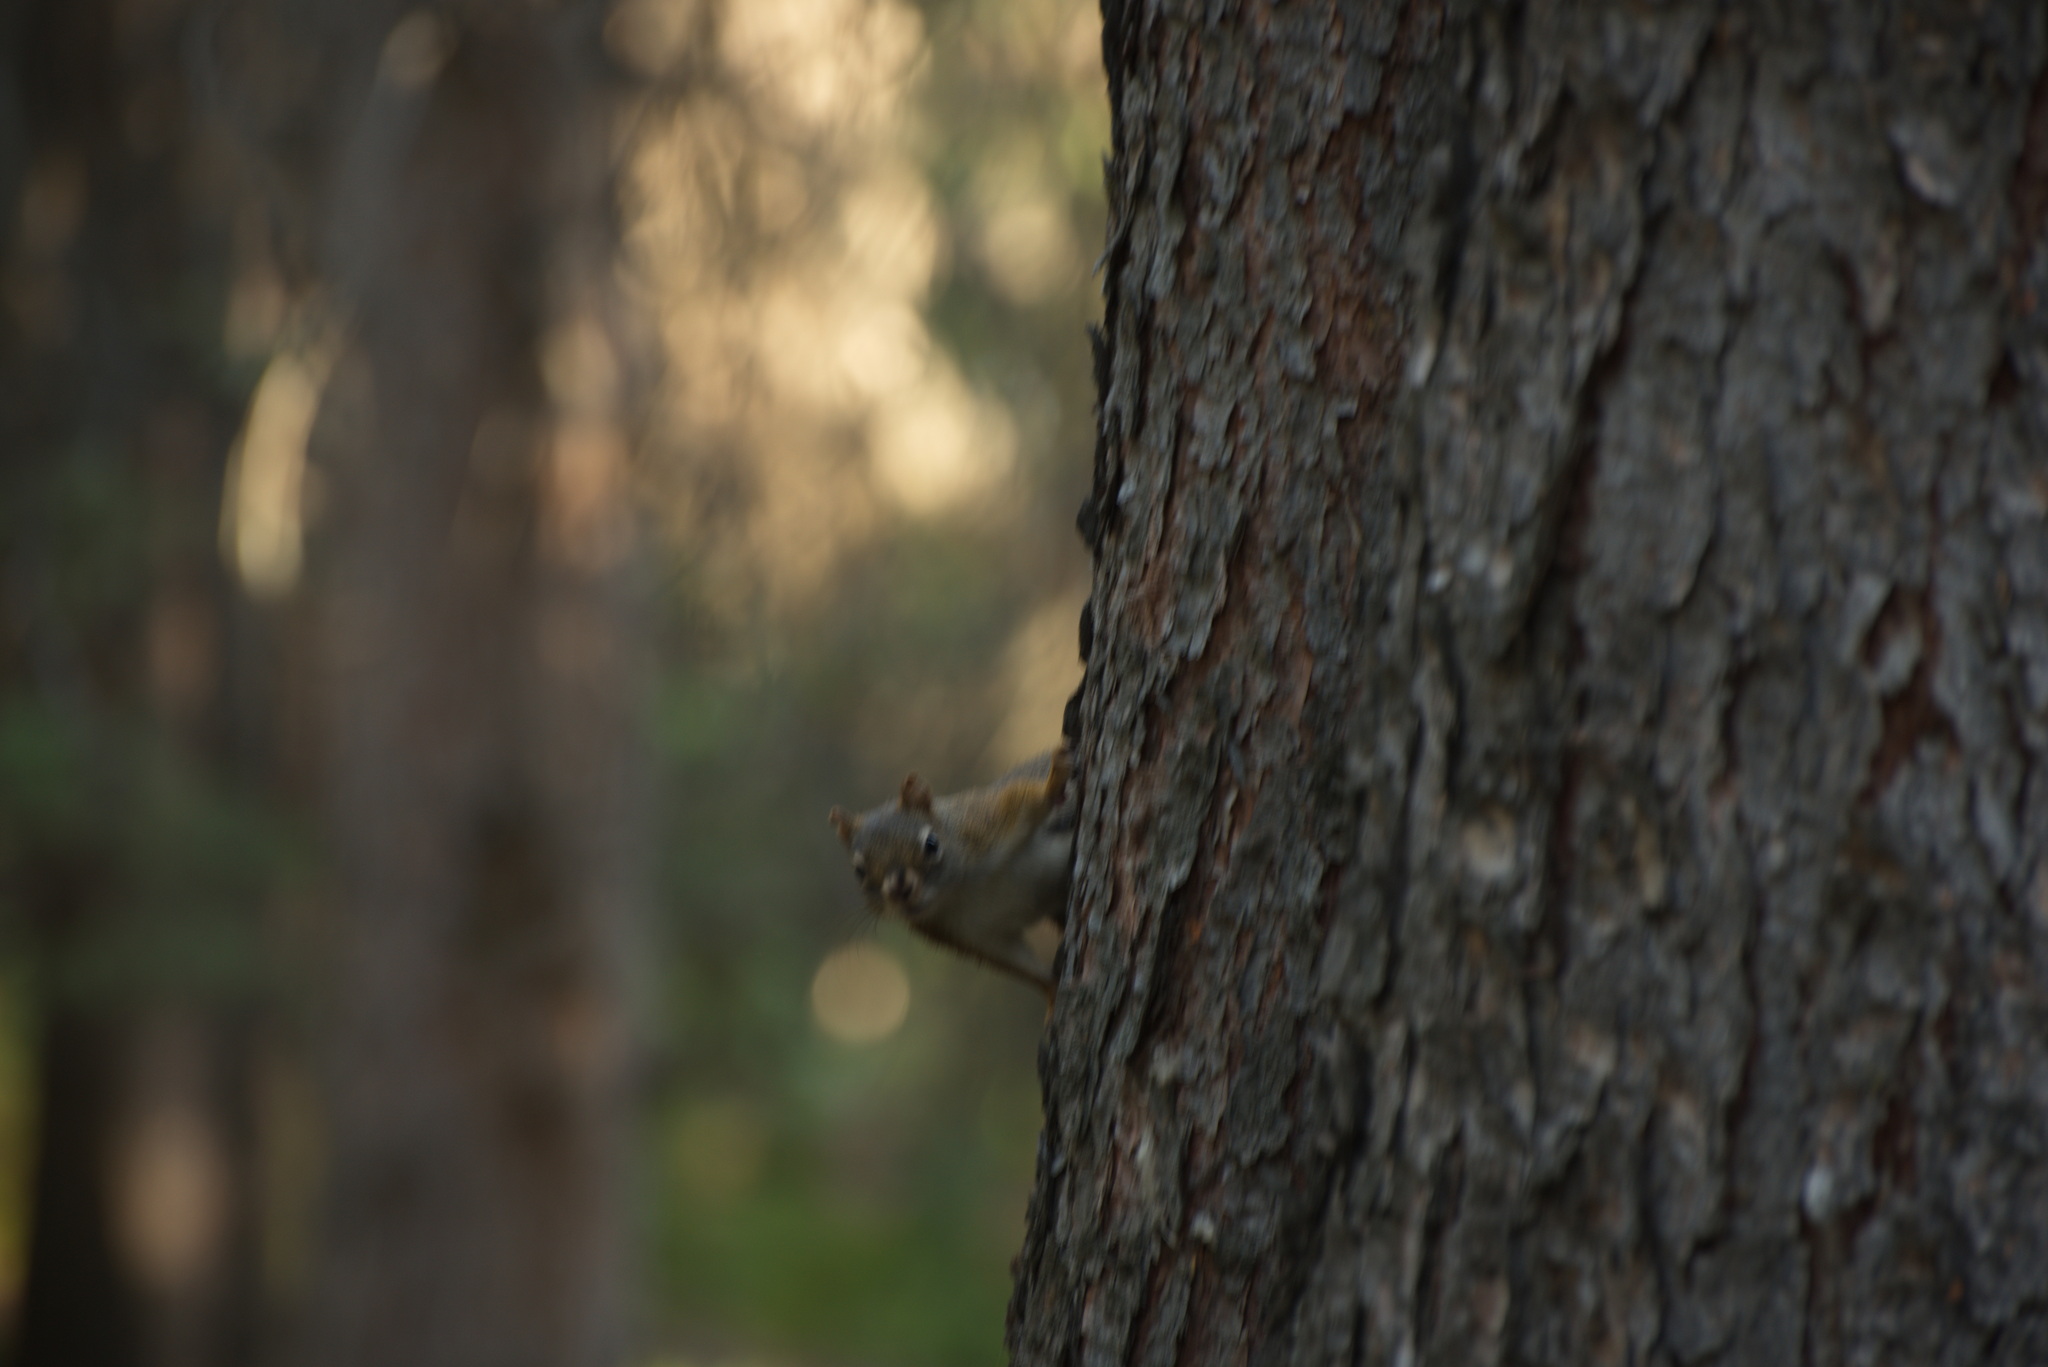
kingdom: Animalia
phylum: Chordata
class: Mammalia
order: Rodentia
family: Sciuridae
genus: Tamiasciurus
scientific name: Tamiasciurus hudsonicus
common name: Red squirrel
